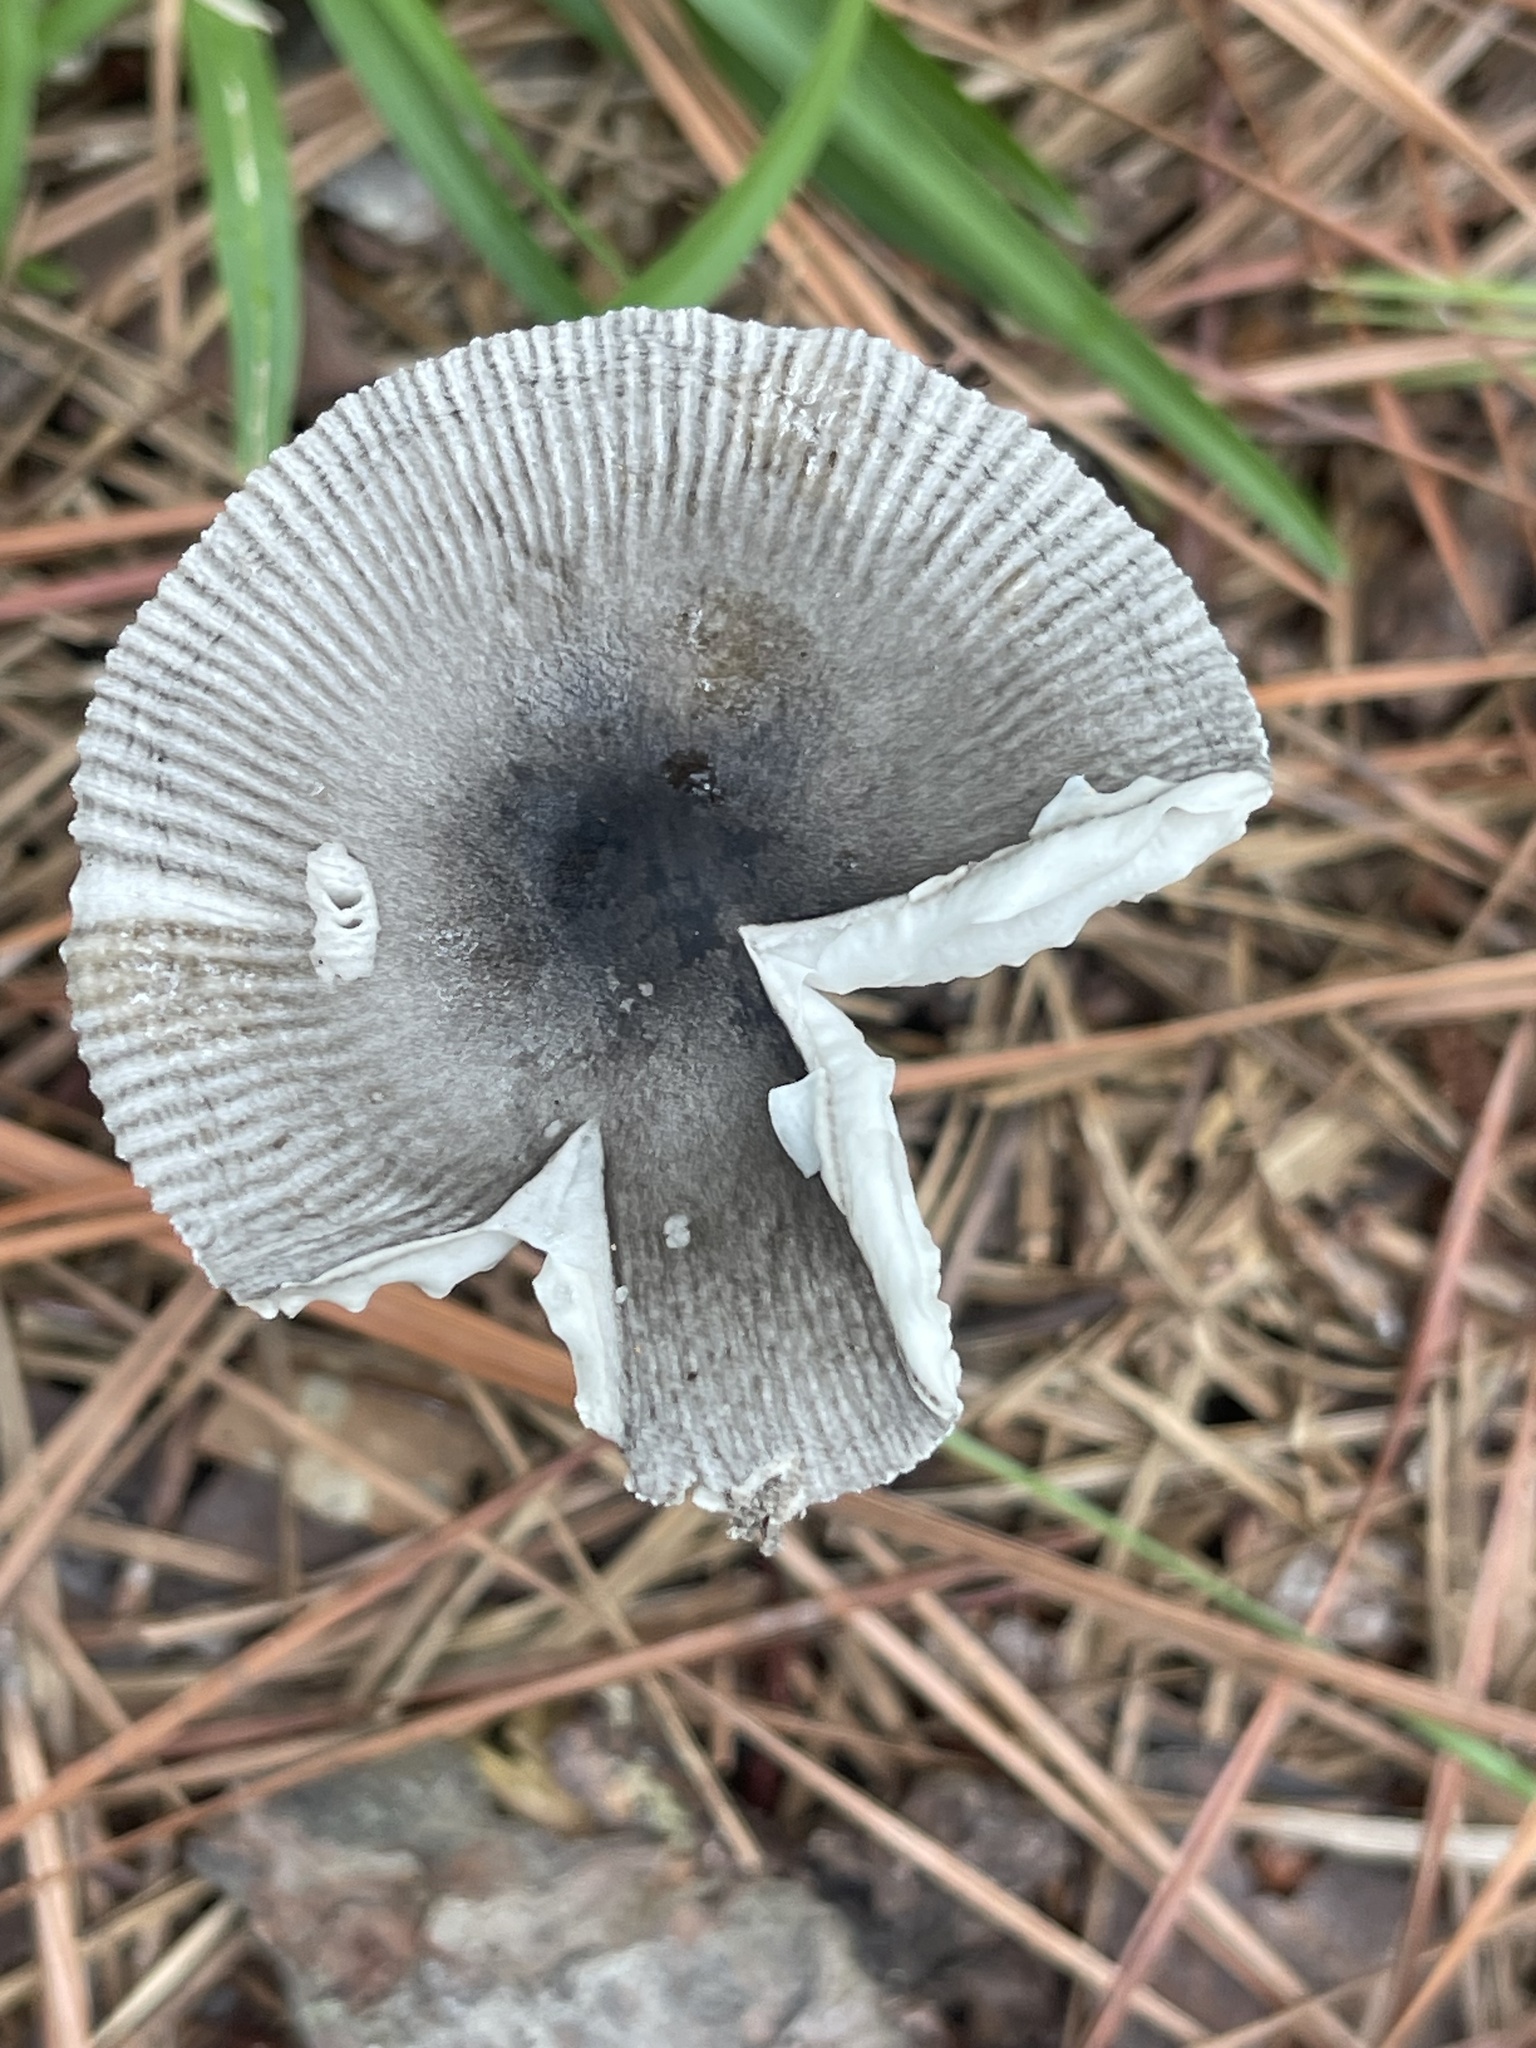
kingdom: Fungi
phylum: Basidiomycota
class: Agaricomycetes
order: Agaricales
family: Amanitaceae
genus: Amanita
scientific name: Amanita vaginata
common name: Grisette
